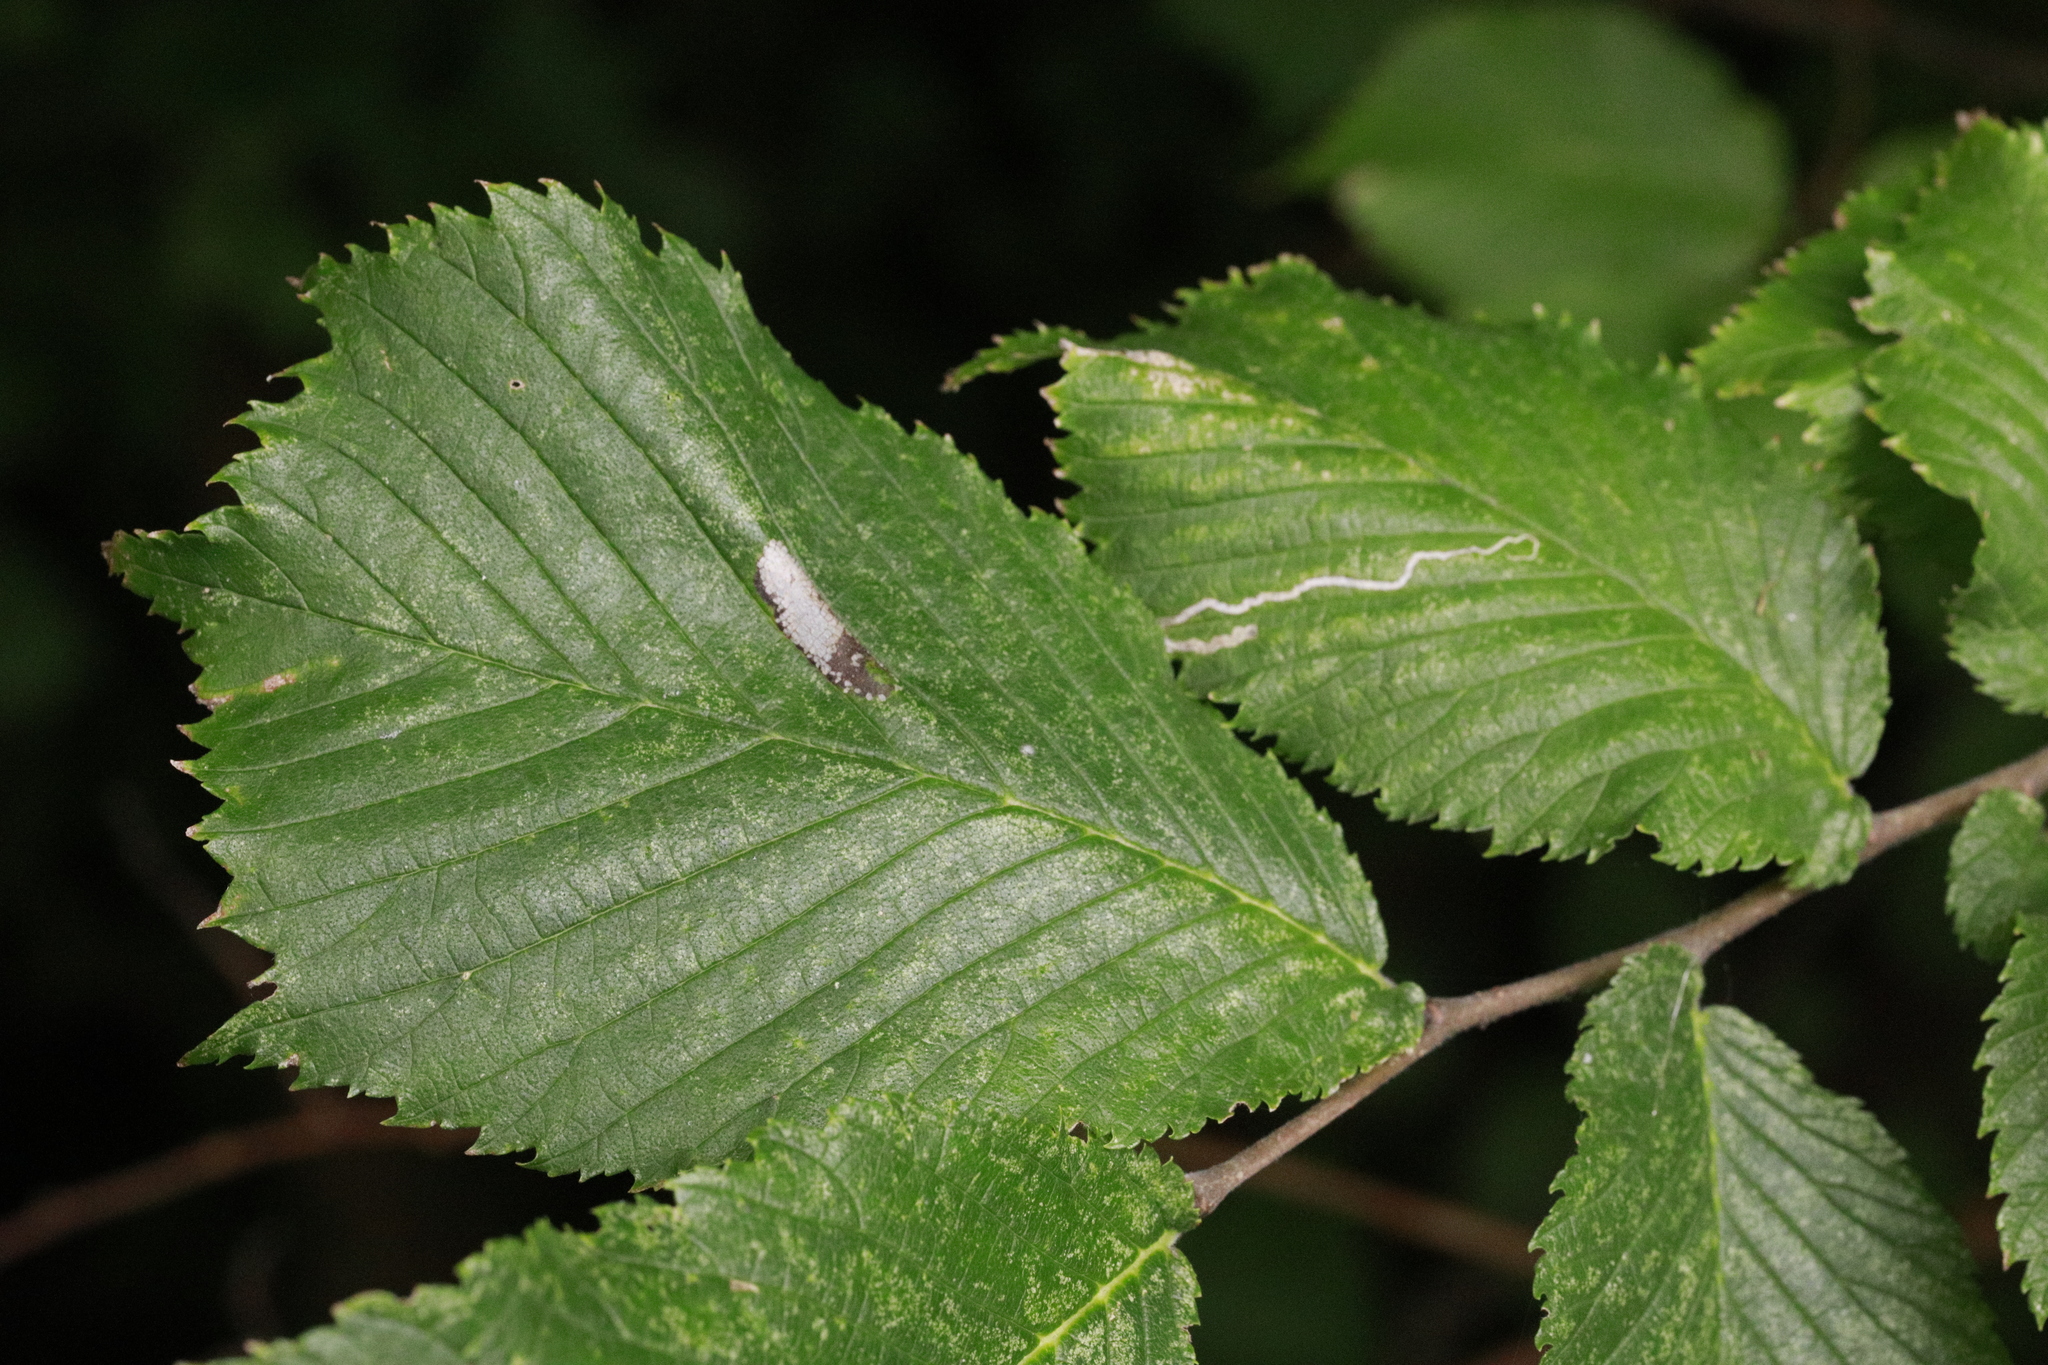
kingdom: Animalia
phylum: Arthropoda
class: Insecta
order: Lepidoptera
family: Gracillariidae
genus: Phyllonorycter
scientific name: Phyllonorycter tristrigella
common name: Elm midget
